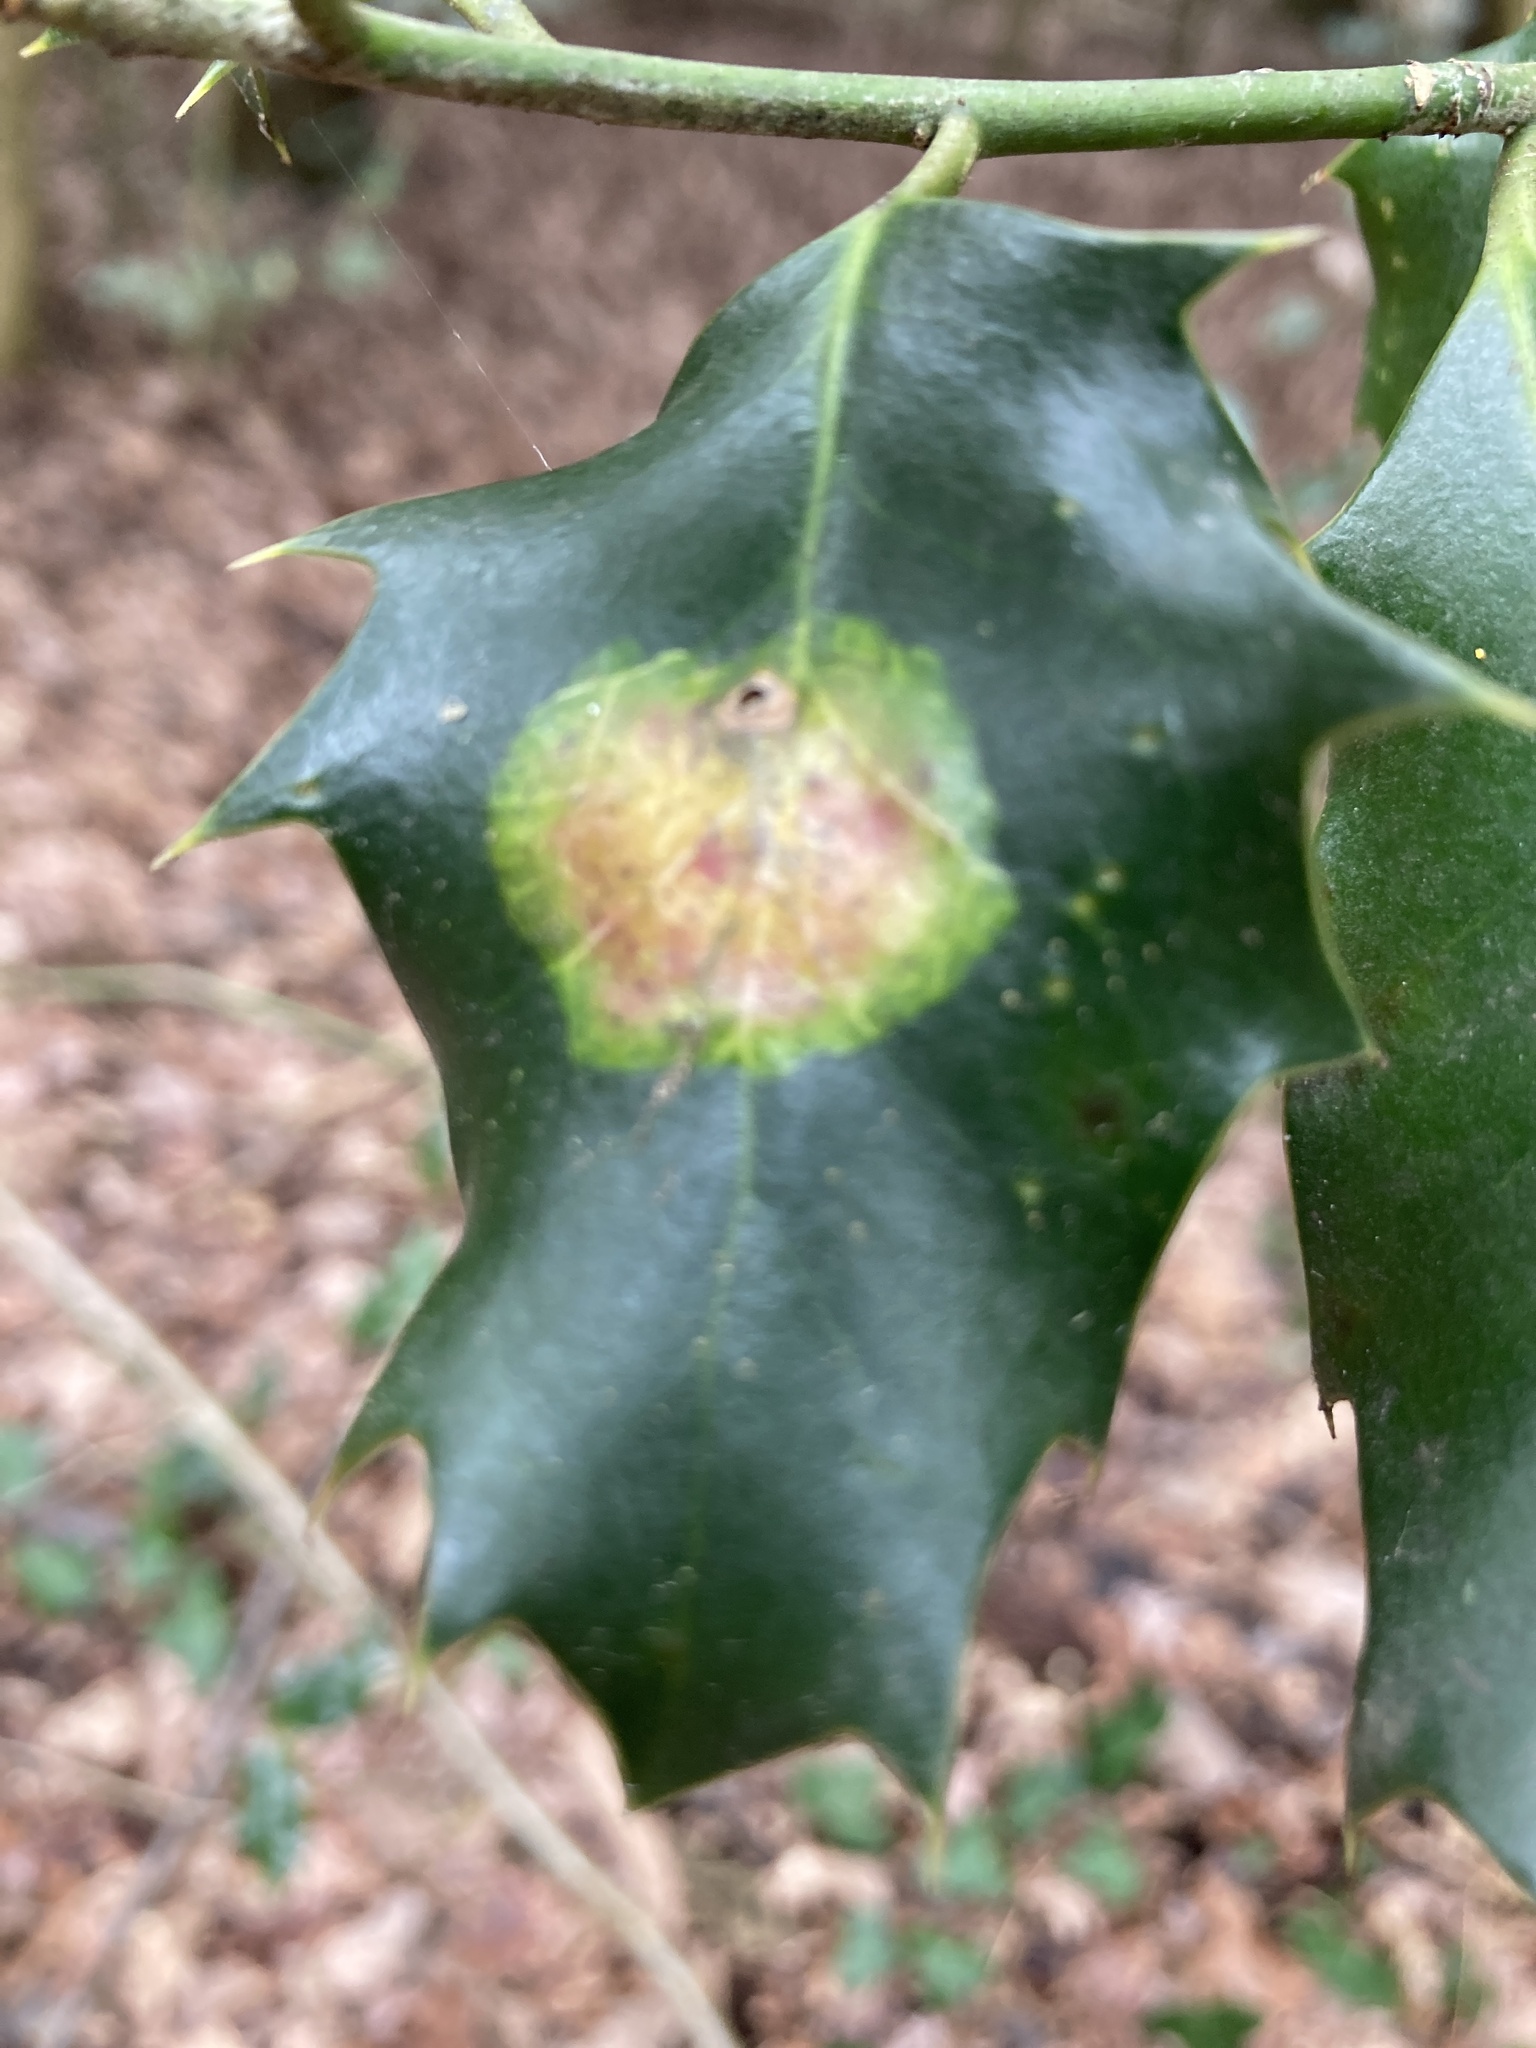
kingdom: Animalia
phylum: Arthropoda
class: Insecta
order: Diptera
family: Agromyzidae
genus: Phytomyza
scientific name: Phytomyza ilicis
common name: Holly leafminer
